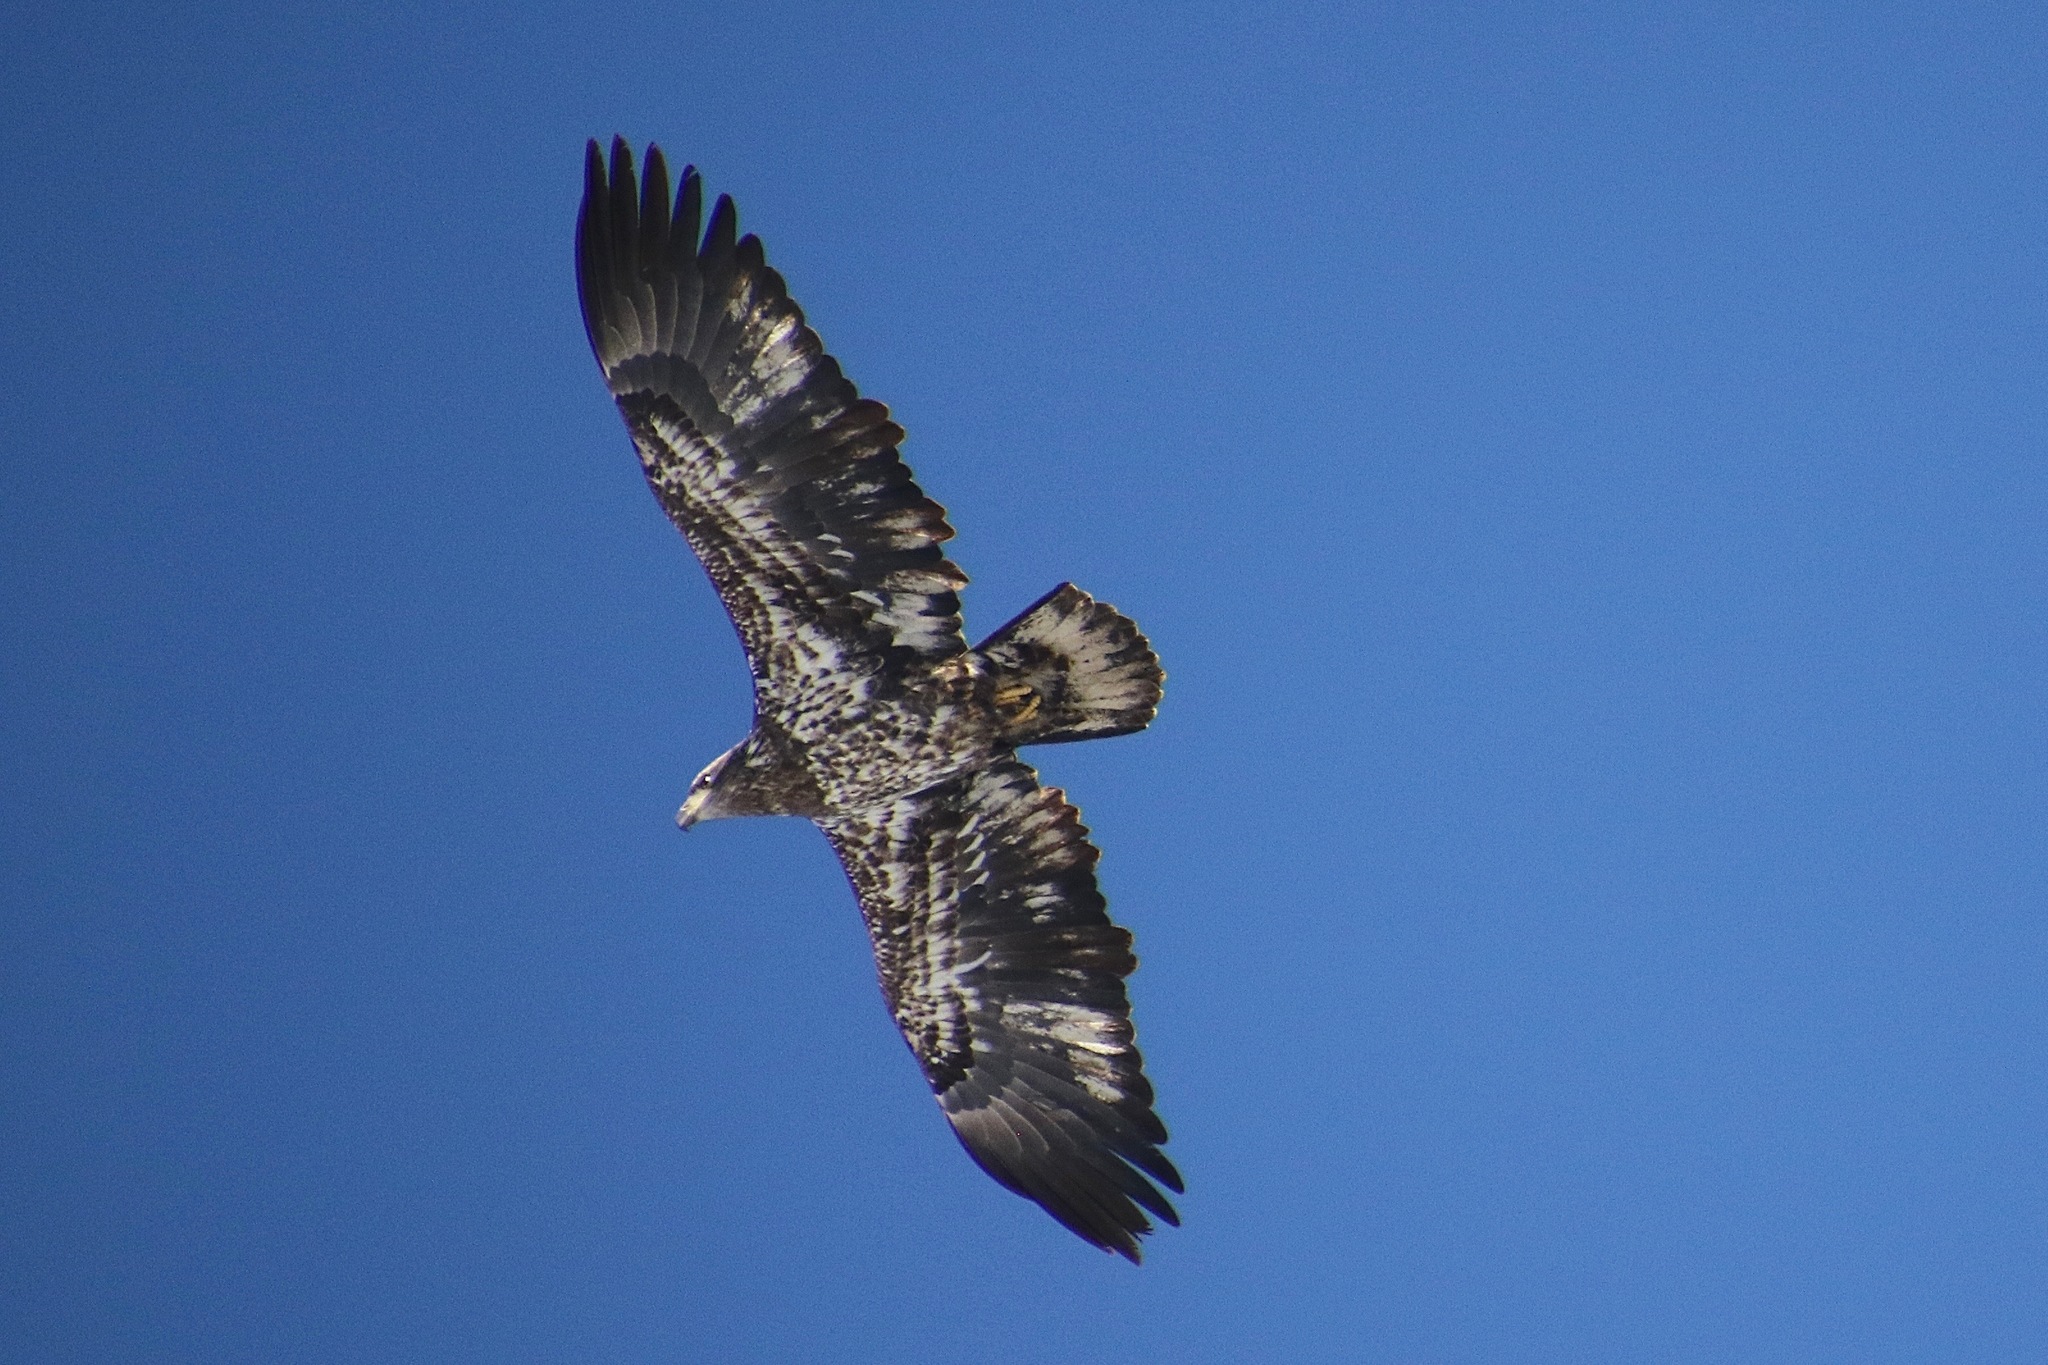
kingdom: Animalia
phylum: Chordata
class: Aves
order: Accipitriformes
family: Accipitridae
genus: Haliaeetus
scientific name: Haliaeetus leucocephalus
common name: Bald eagle
